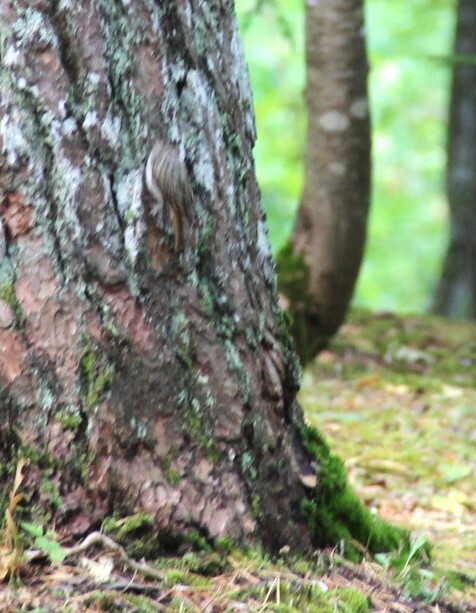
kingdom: Animalia
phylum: Chordata
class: Aves
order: Passeriformes
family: Certhiidae
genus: Certhia
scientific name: Certhia familiaris
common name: Eurasian treecreeper
